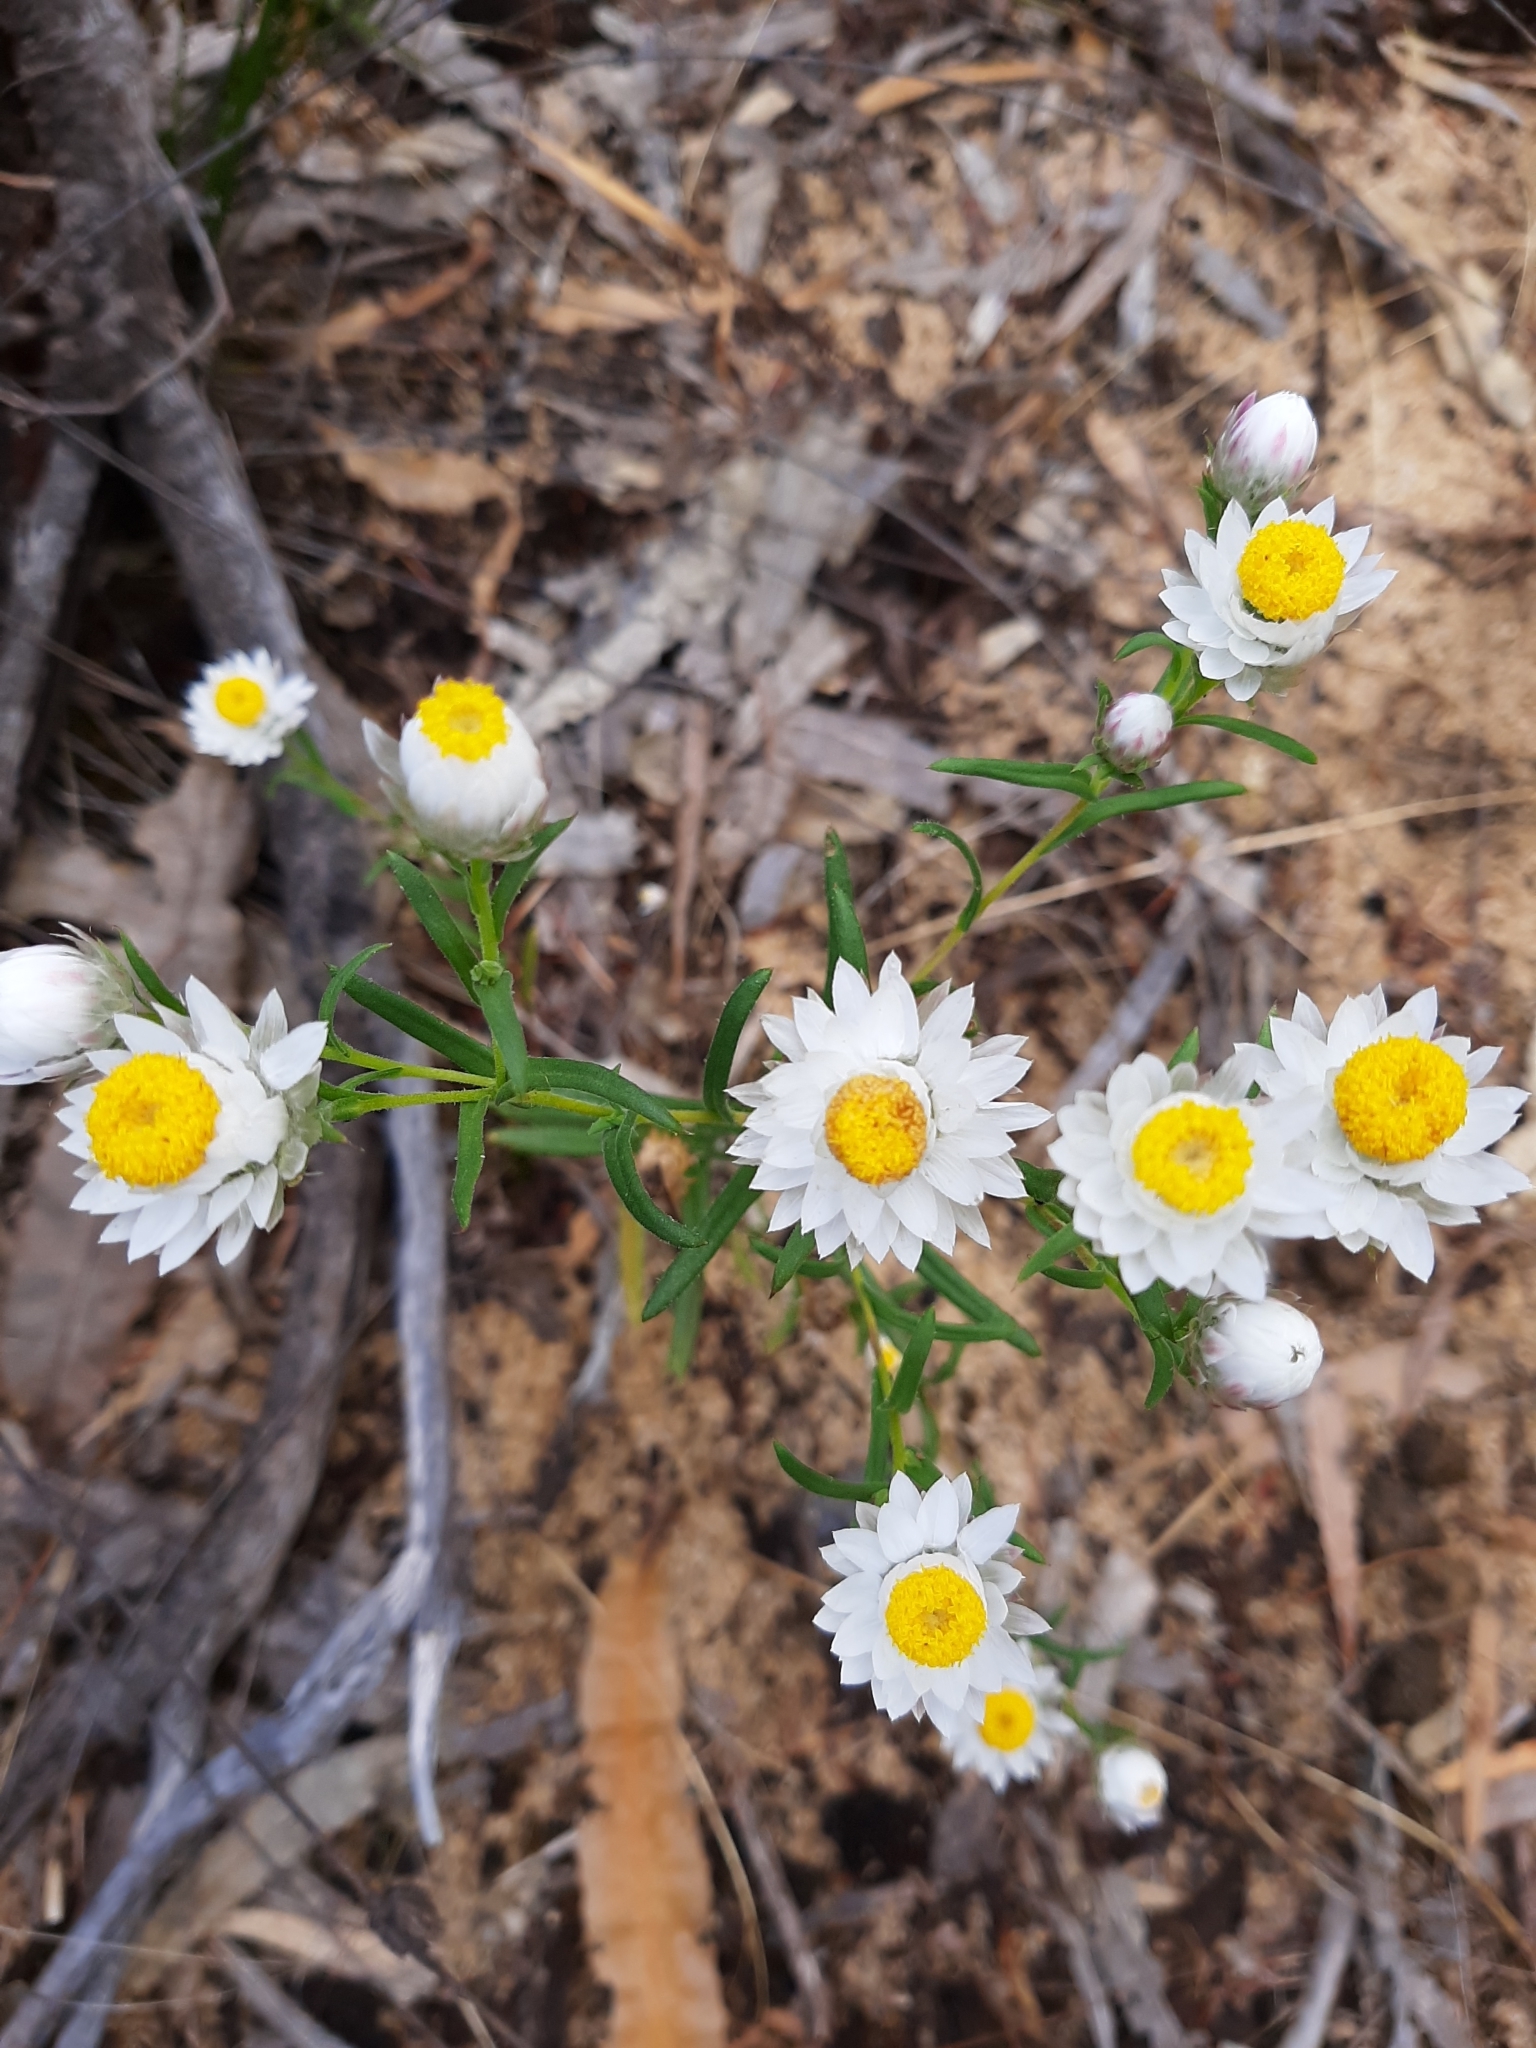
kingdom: Plantae
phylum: Tracheophyta
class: Magnoliopsida
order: Asterales
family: Asteraceae
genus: Waitzia
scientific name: Waitzia suaveolens
